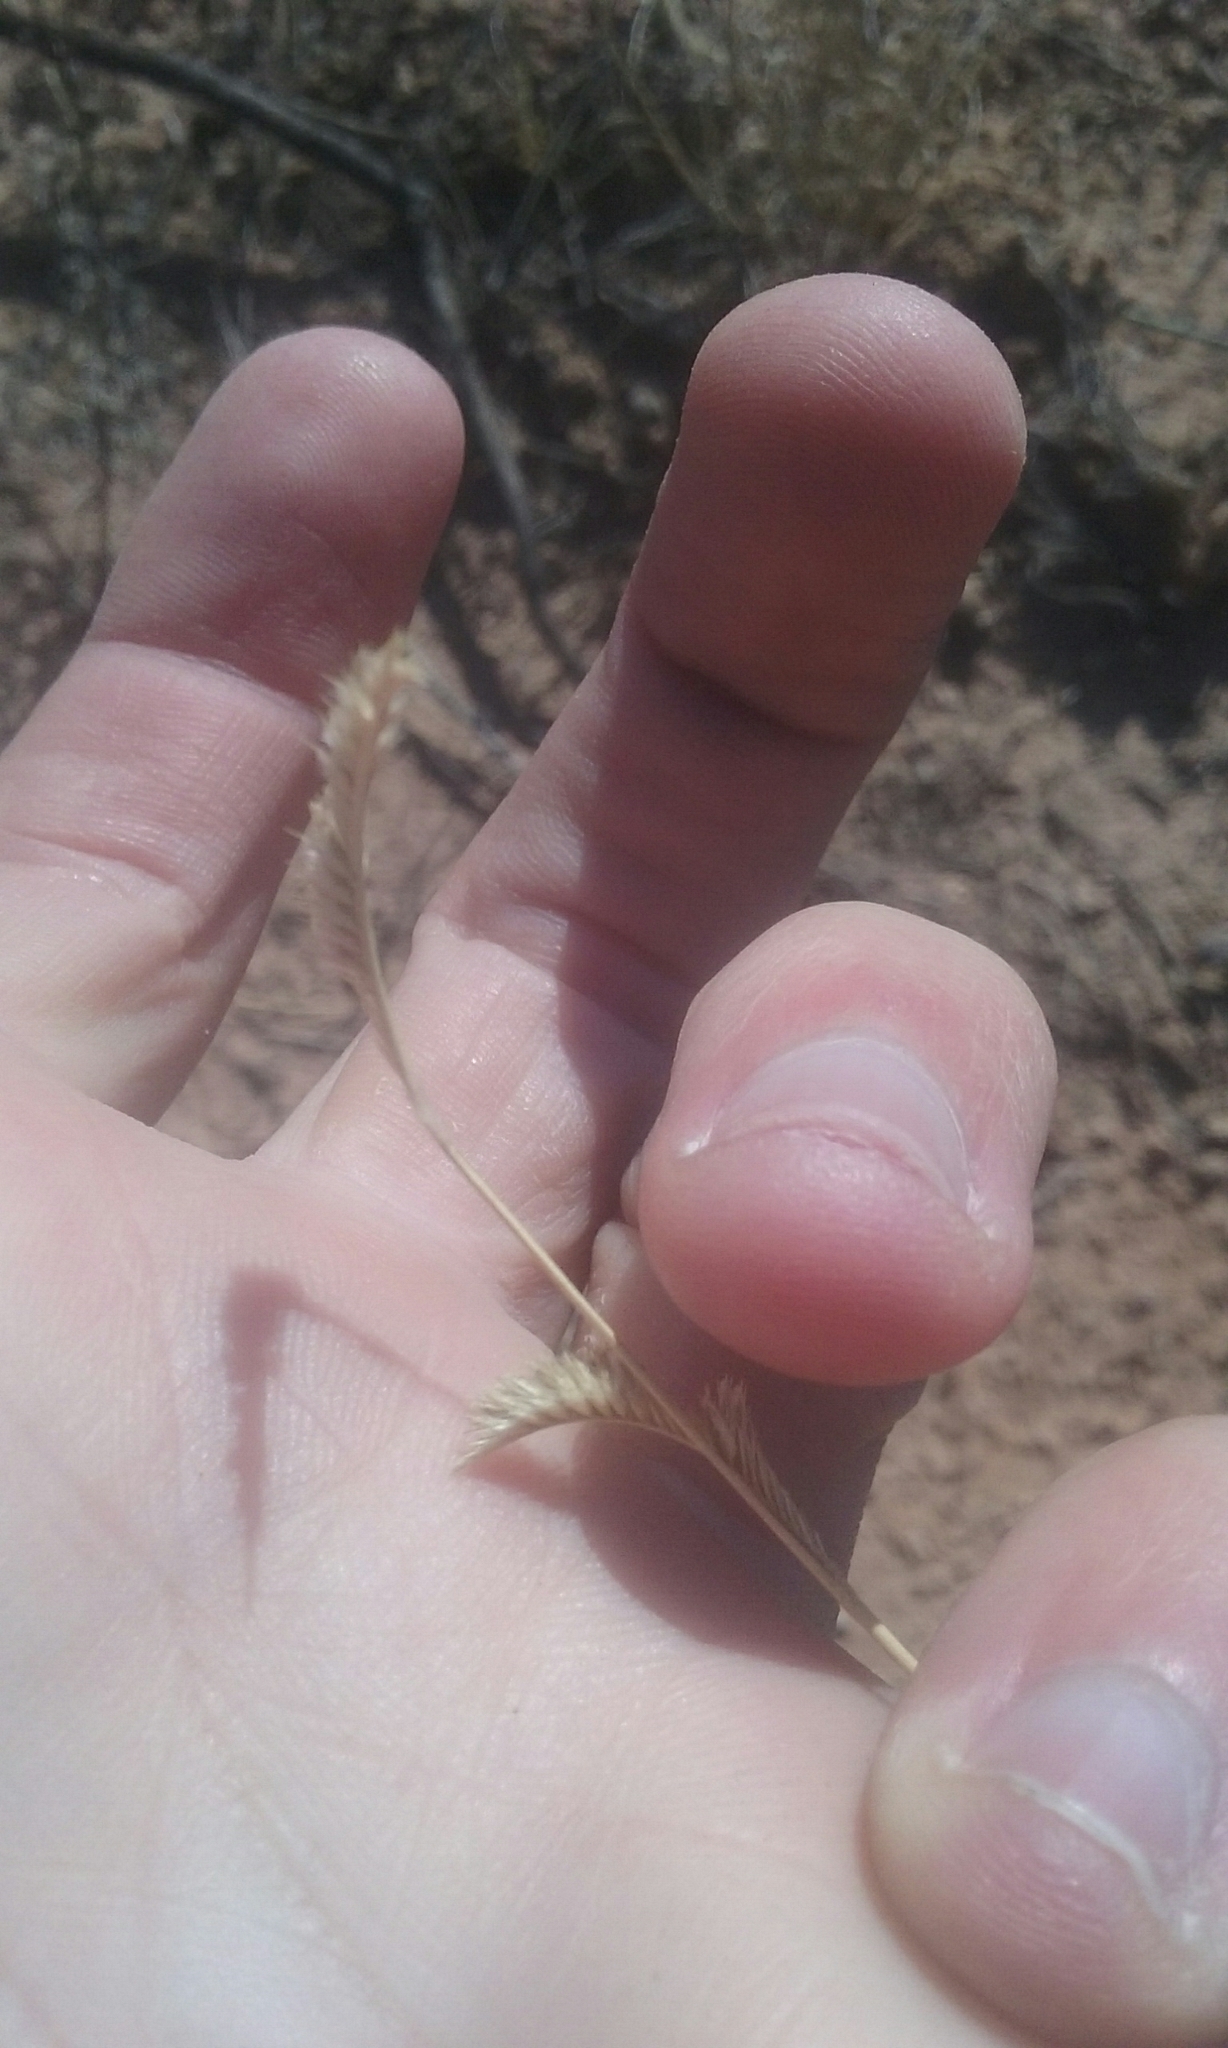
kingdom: Plantae
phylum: Tracheophyta
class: Liliopsida
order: Poales
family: Poaceae
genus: Bouteloua
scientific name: Bouteloua breviseta
